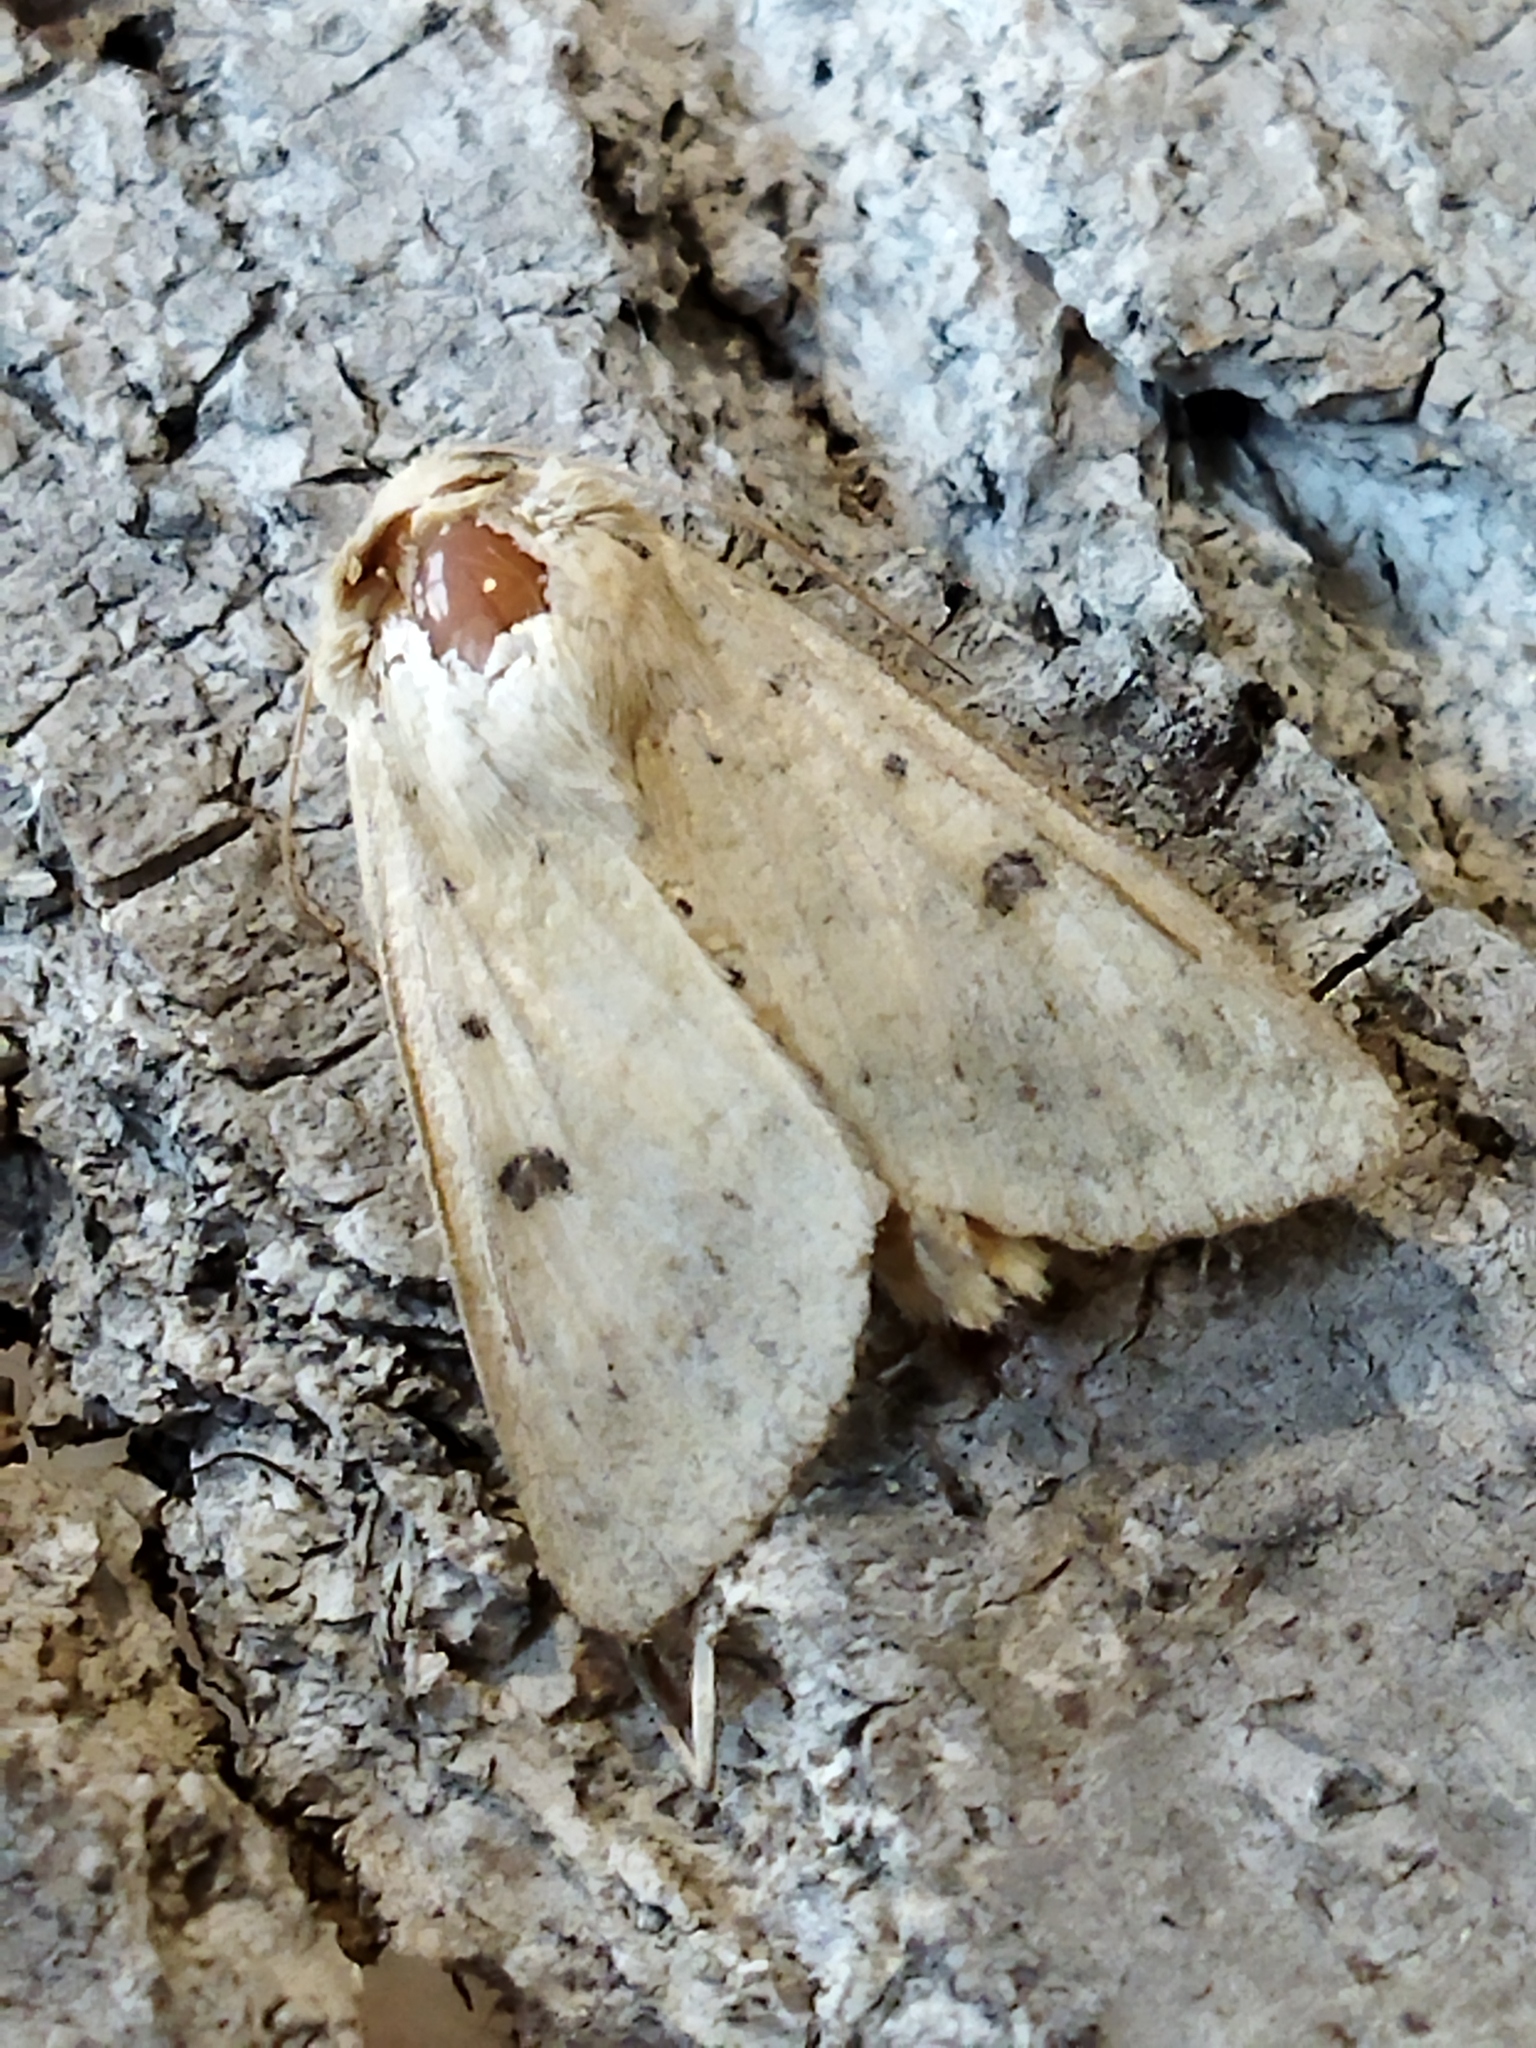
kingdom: Animalia
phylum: Arthropoda
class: Insecta
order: Lepidoptera
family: Noctuidae
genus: Helicoverpa
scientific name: Helicoverpa armigera
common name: Cotton bollworm
